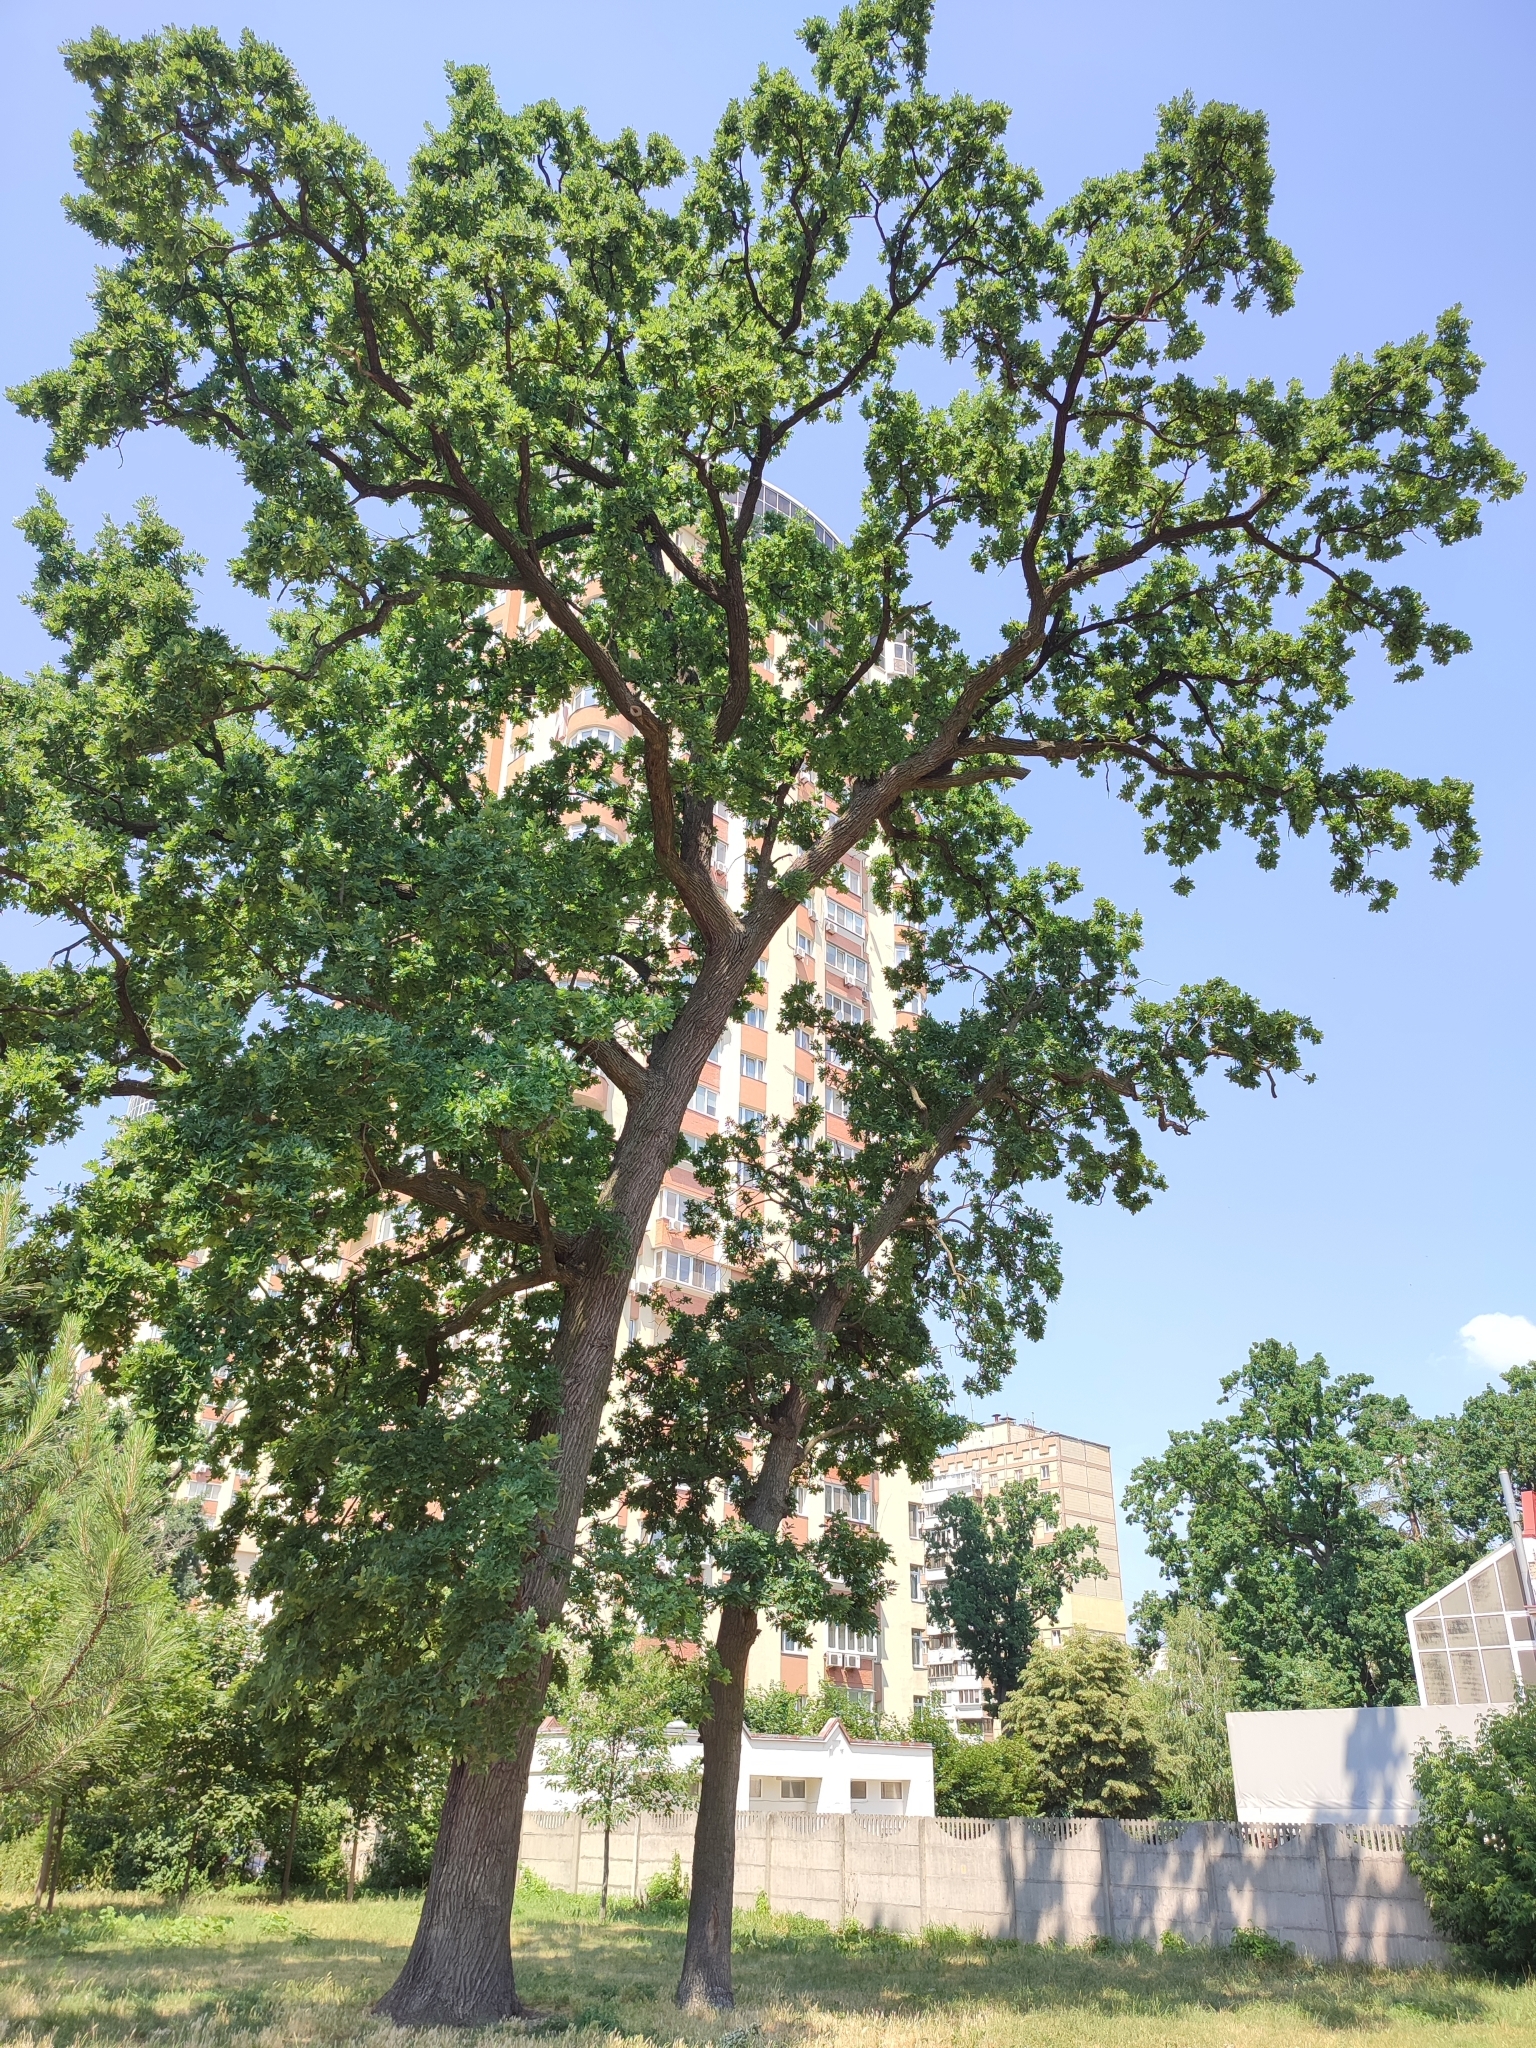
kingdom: Plantae
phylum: Tracheophyta
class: Magnoliopsida
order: Fagales
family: Fagaceae
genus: Quercus
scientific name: Quercus robur
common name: Pedunculate oak
